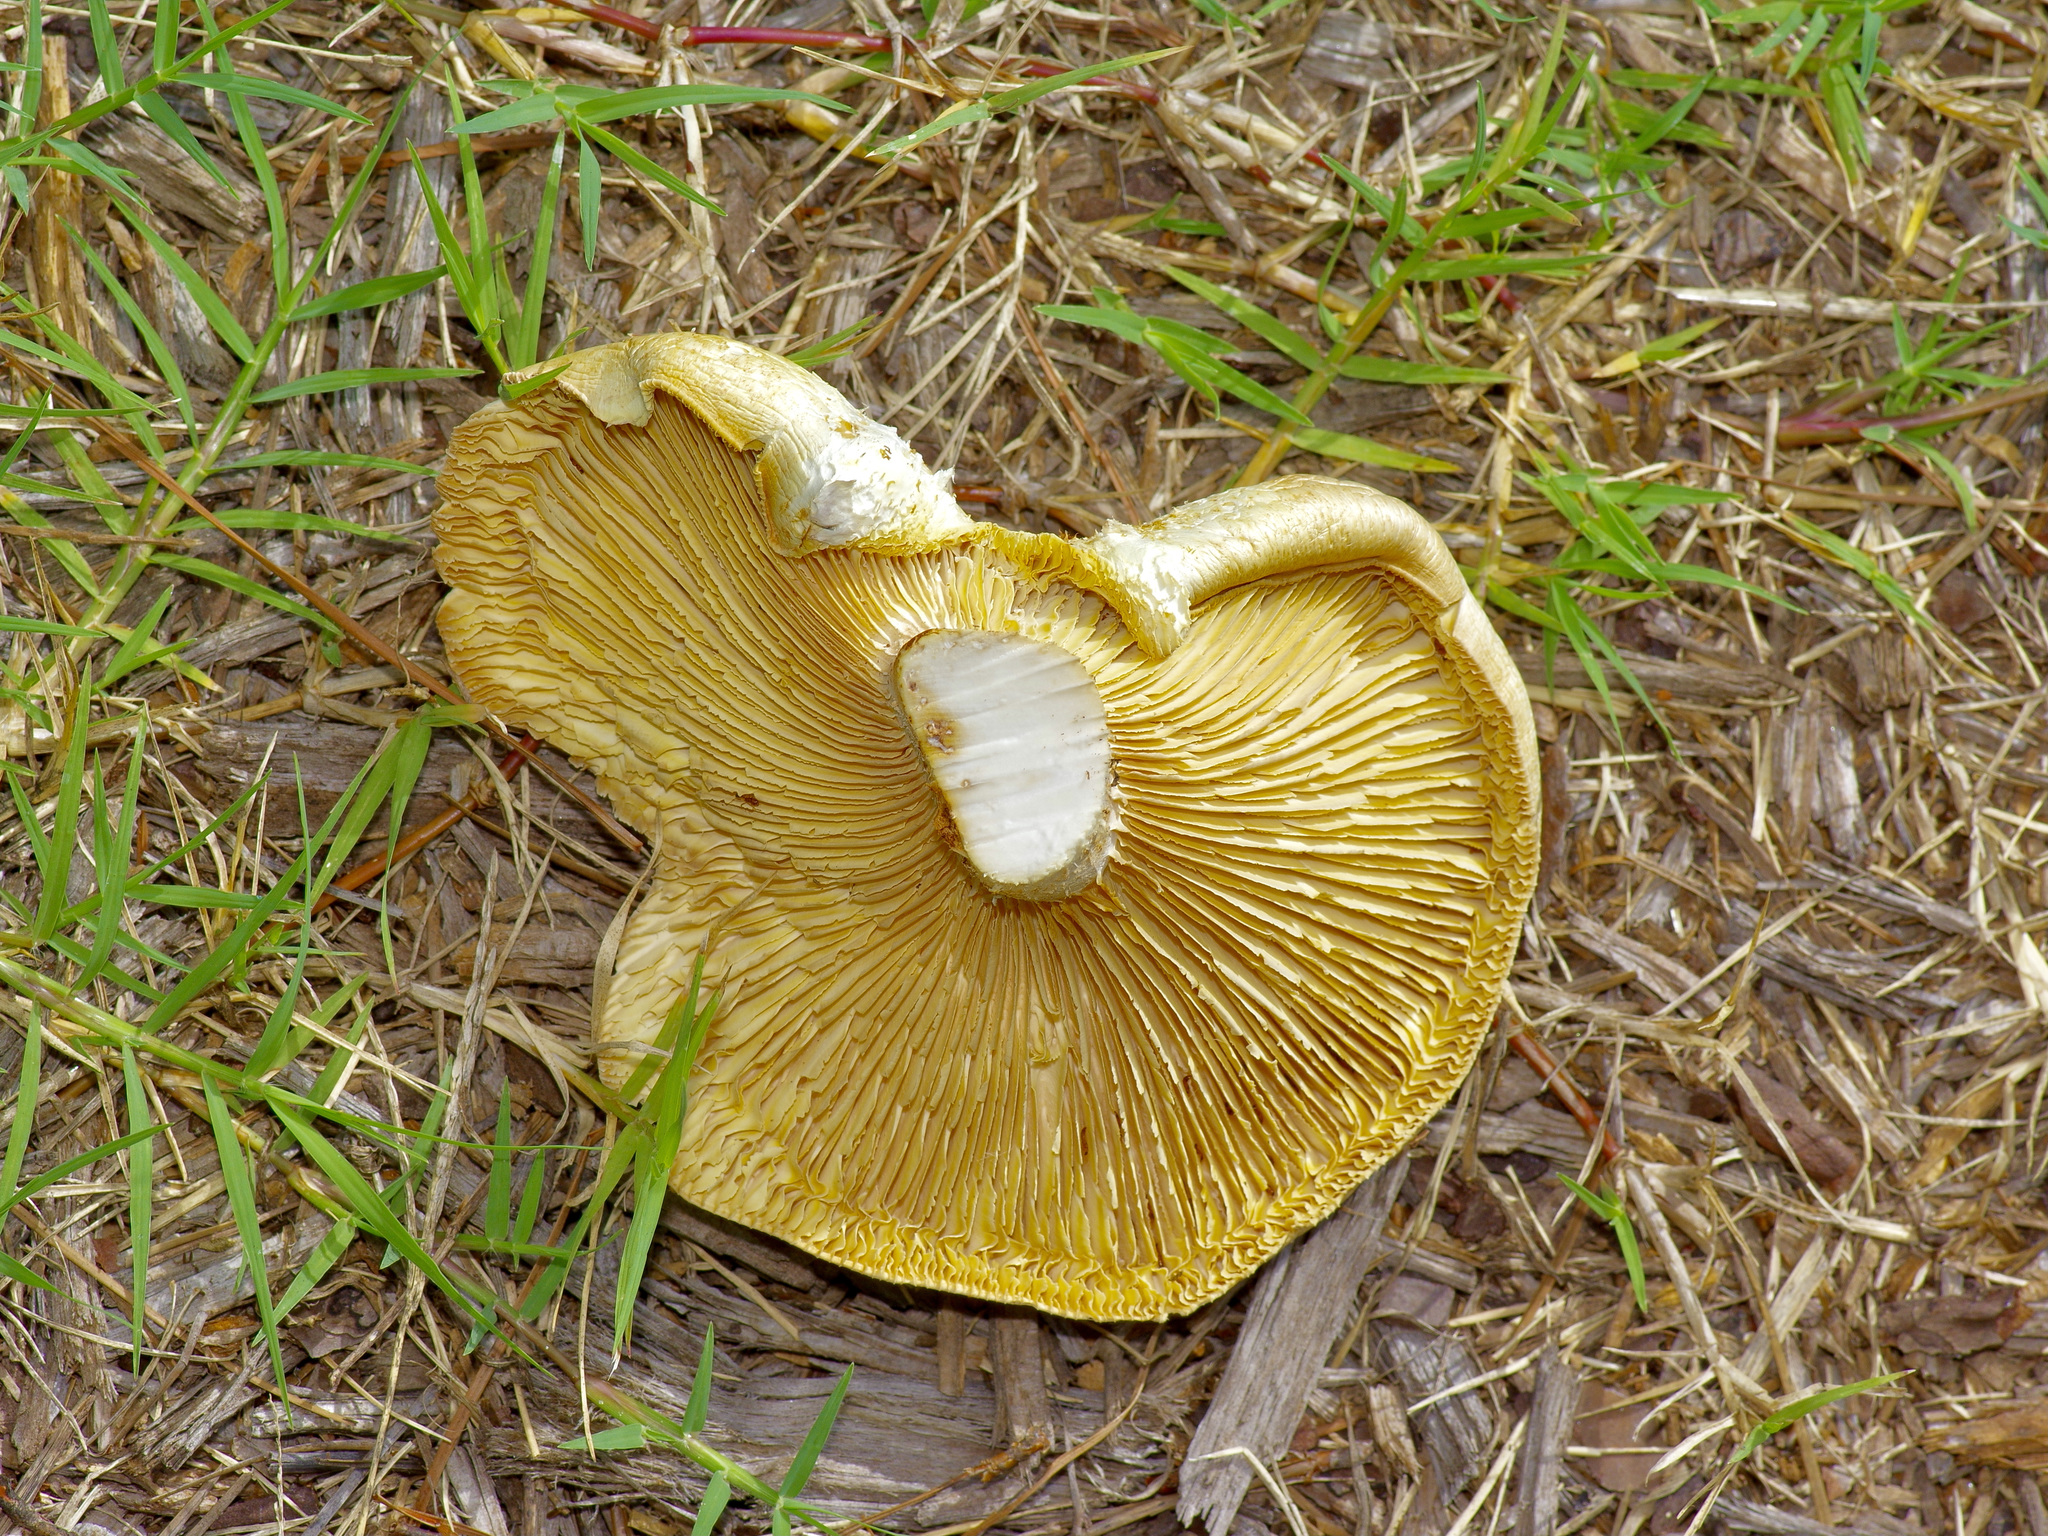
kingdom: Fungi
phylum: Basidiomycota
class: Agaricomycetes
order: Gloeophyllales
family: Gloeophyllaceae
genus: Neolentinus
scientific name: Neolentinus lepideus
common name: Scaly sawgill
